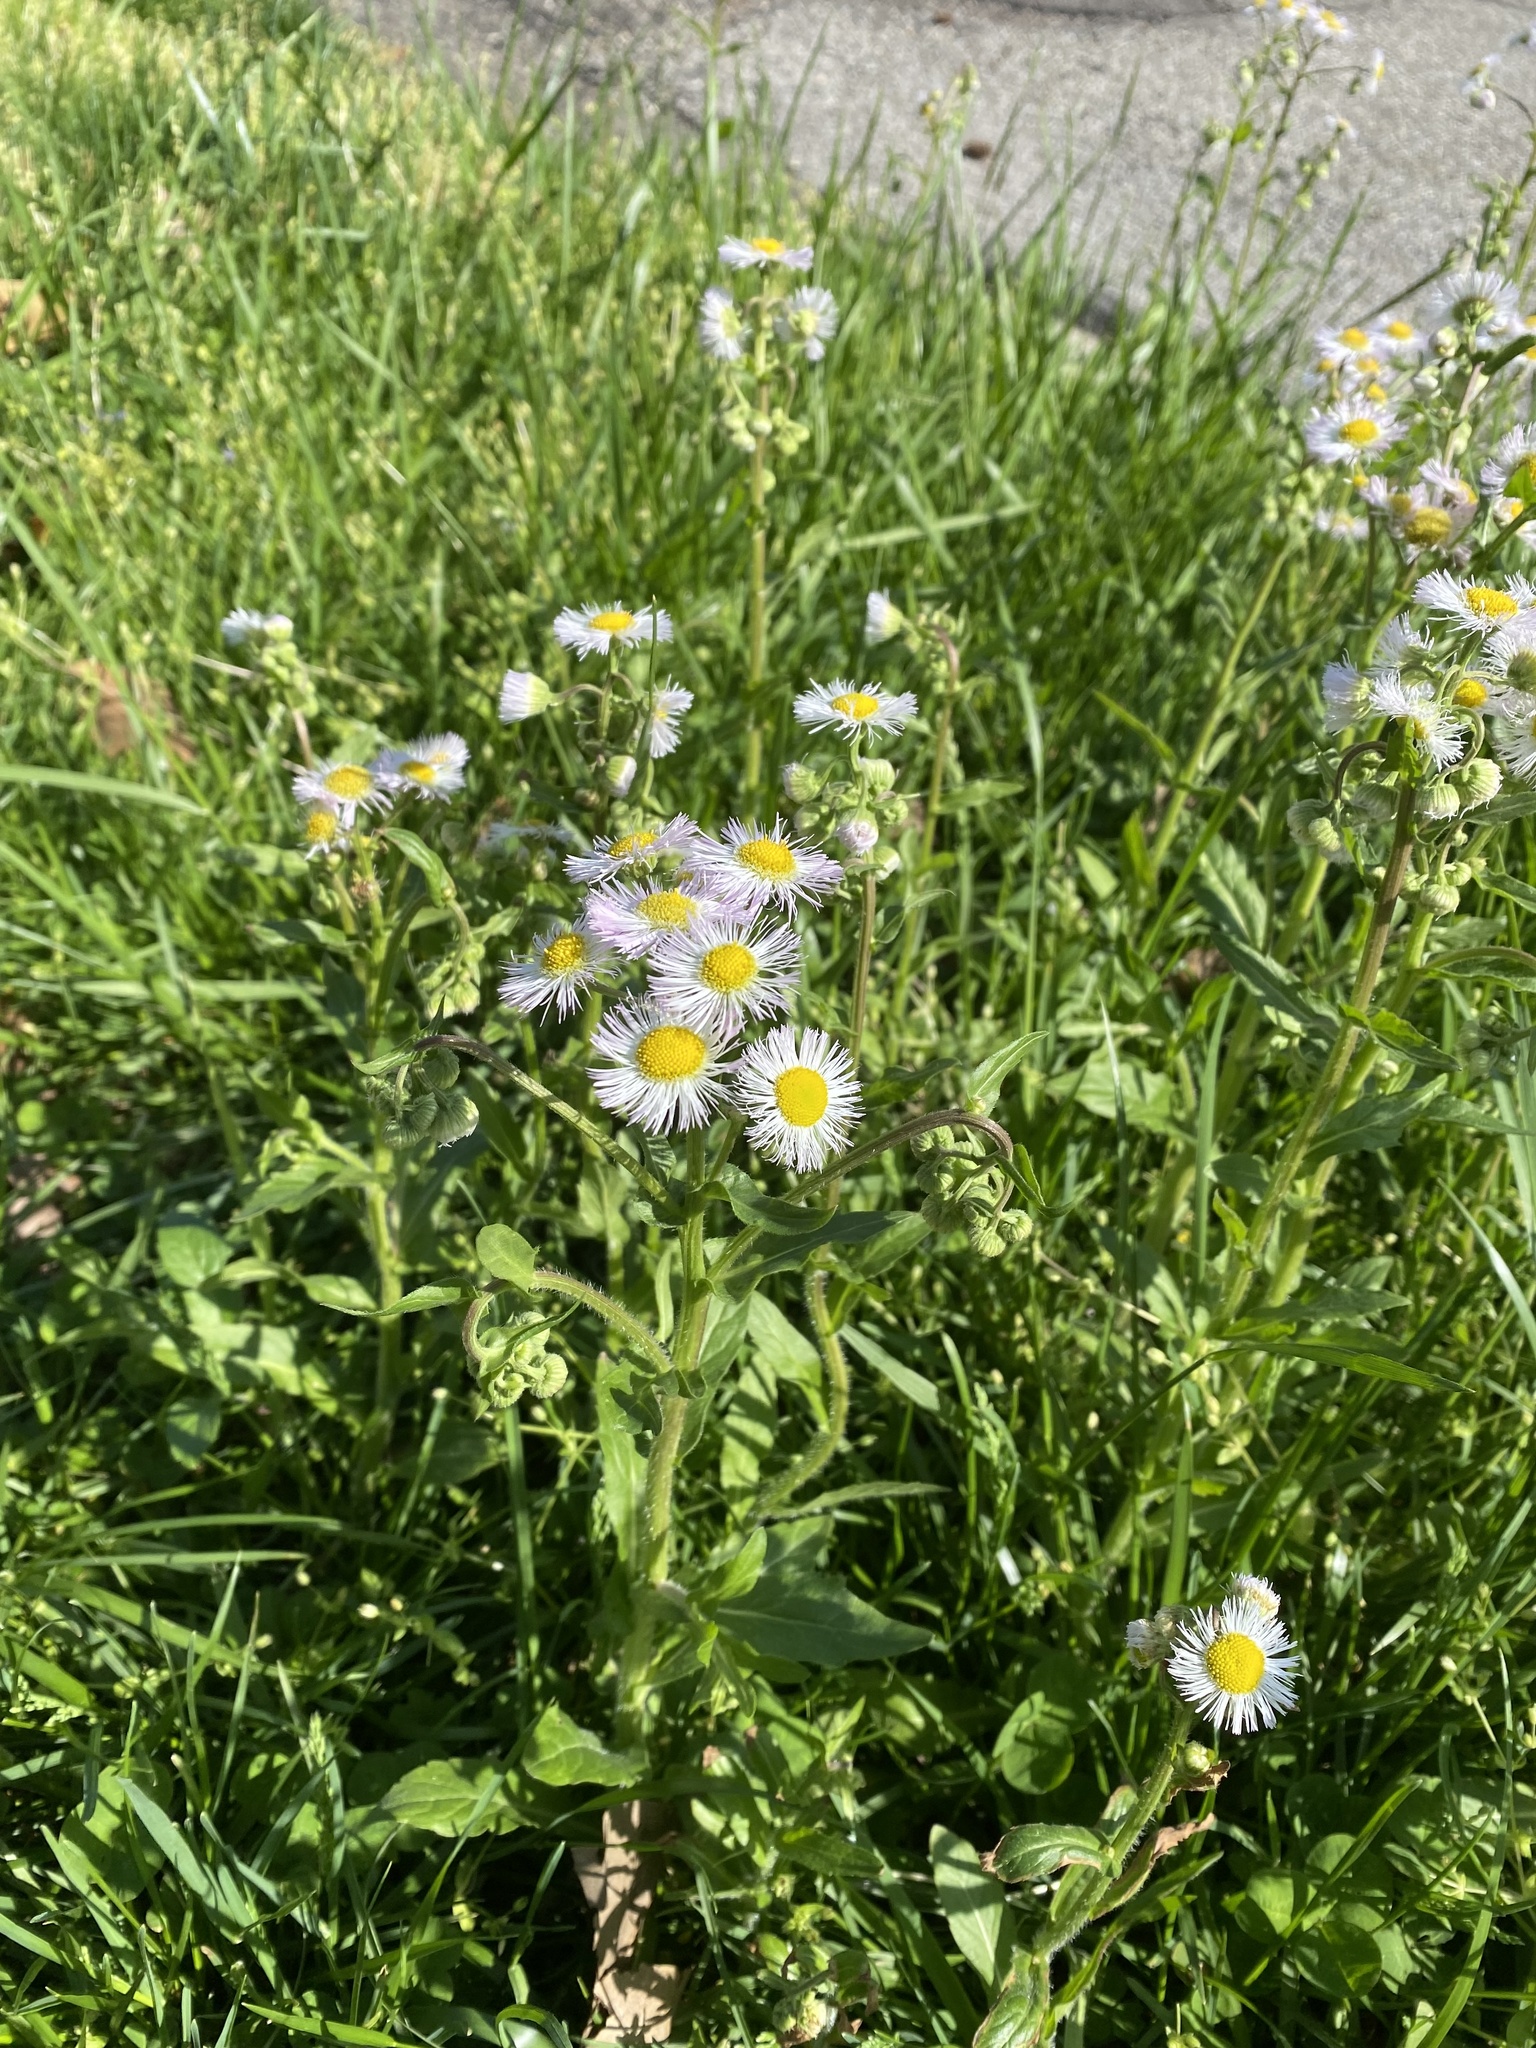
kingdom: Plantae
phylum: Tracheophyta
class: Magnoliopsida
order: Asterales
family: Asteraceae
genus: Erigeron
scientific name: Erigeron philadelphicus
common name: Robin's-plantain
